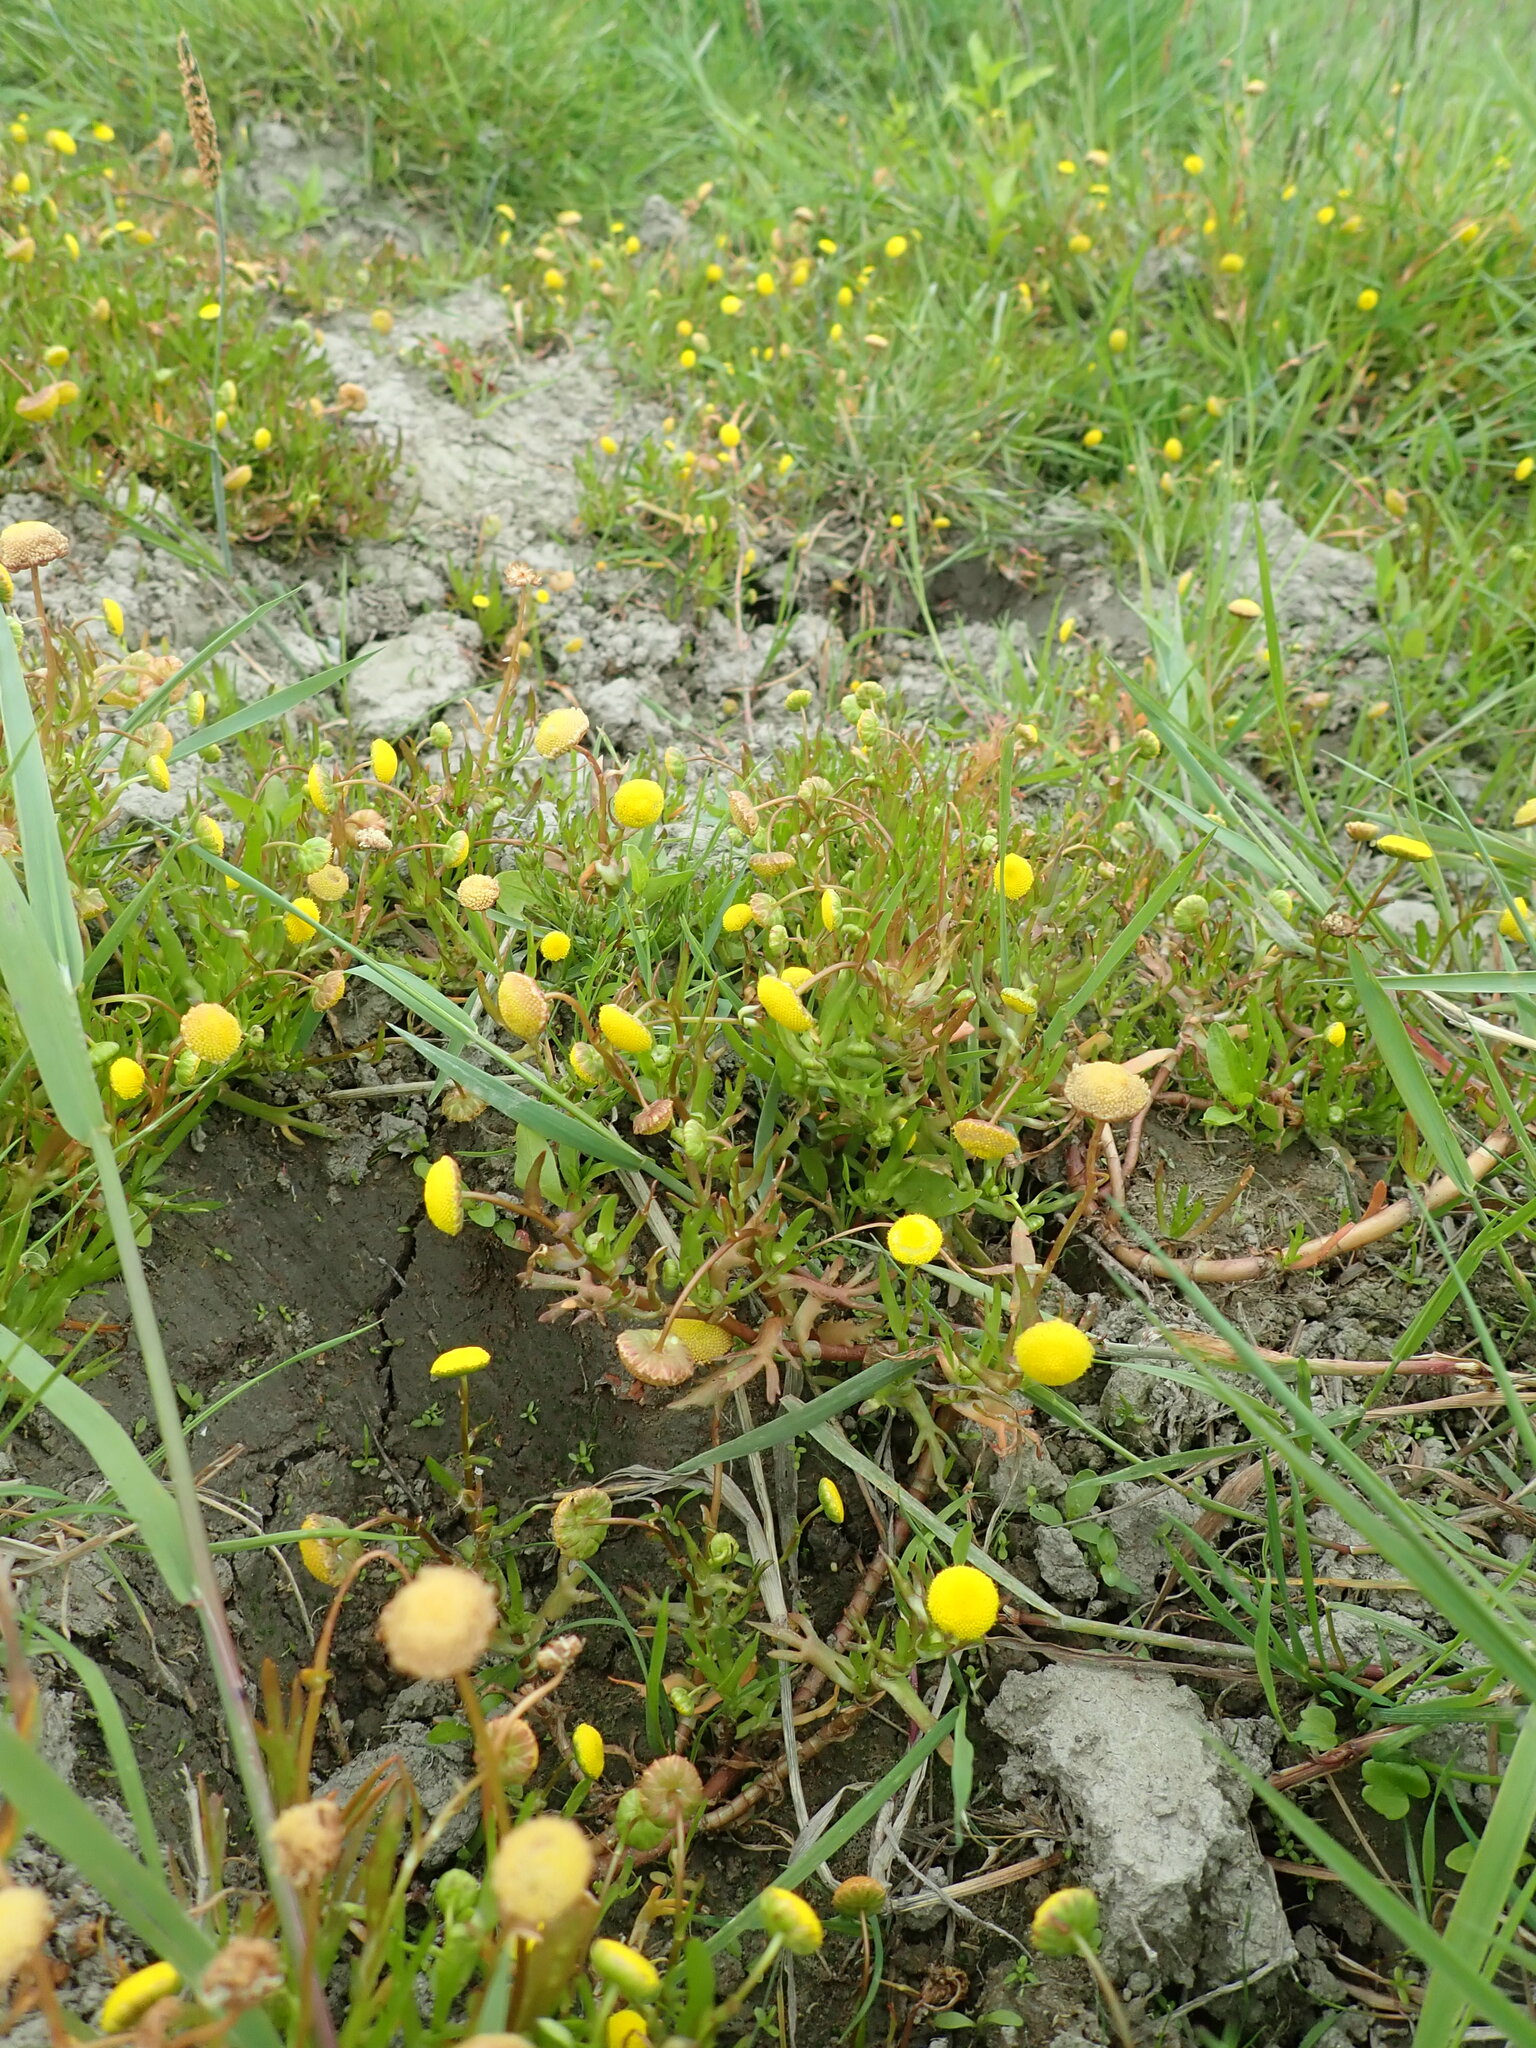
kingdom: Plantae
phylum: Tracheophyta
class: Magnoliopsida
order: Asterales
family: Asteraceae
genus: Cotula
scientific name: Cotula coronopifolia
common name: Buttonweed
